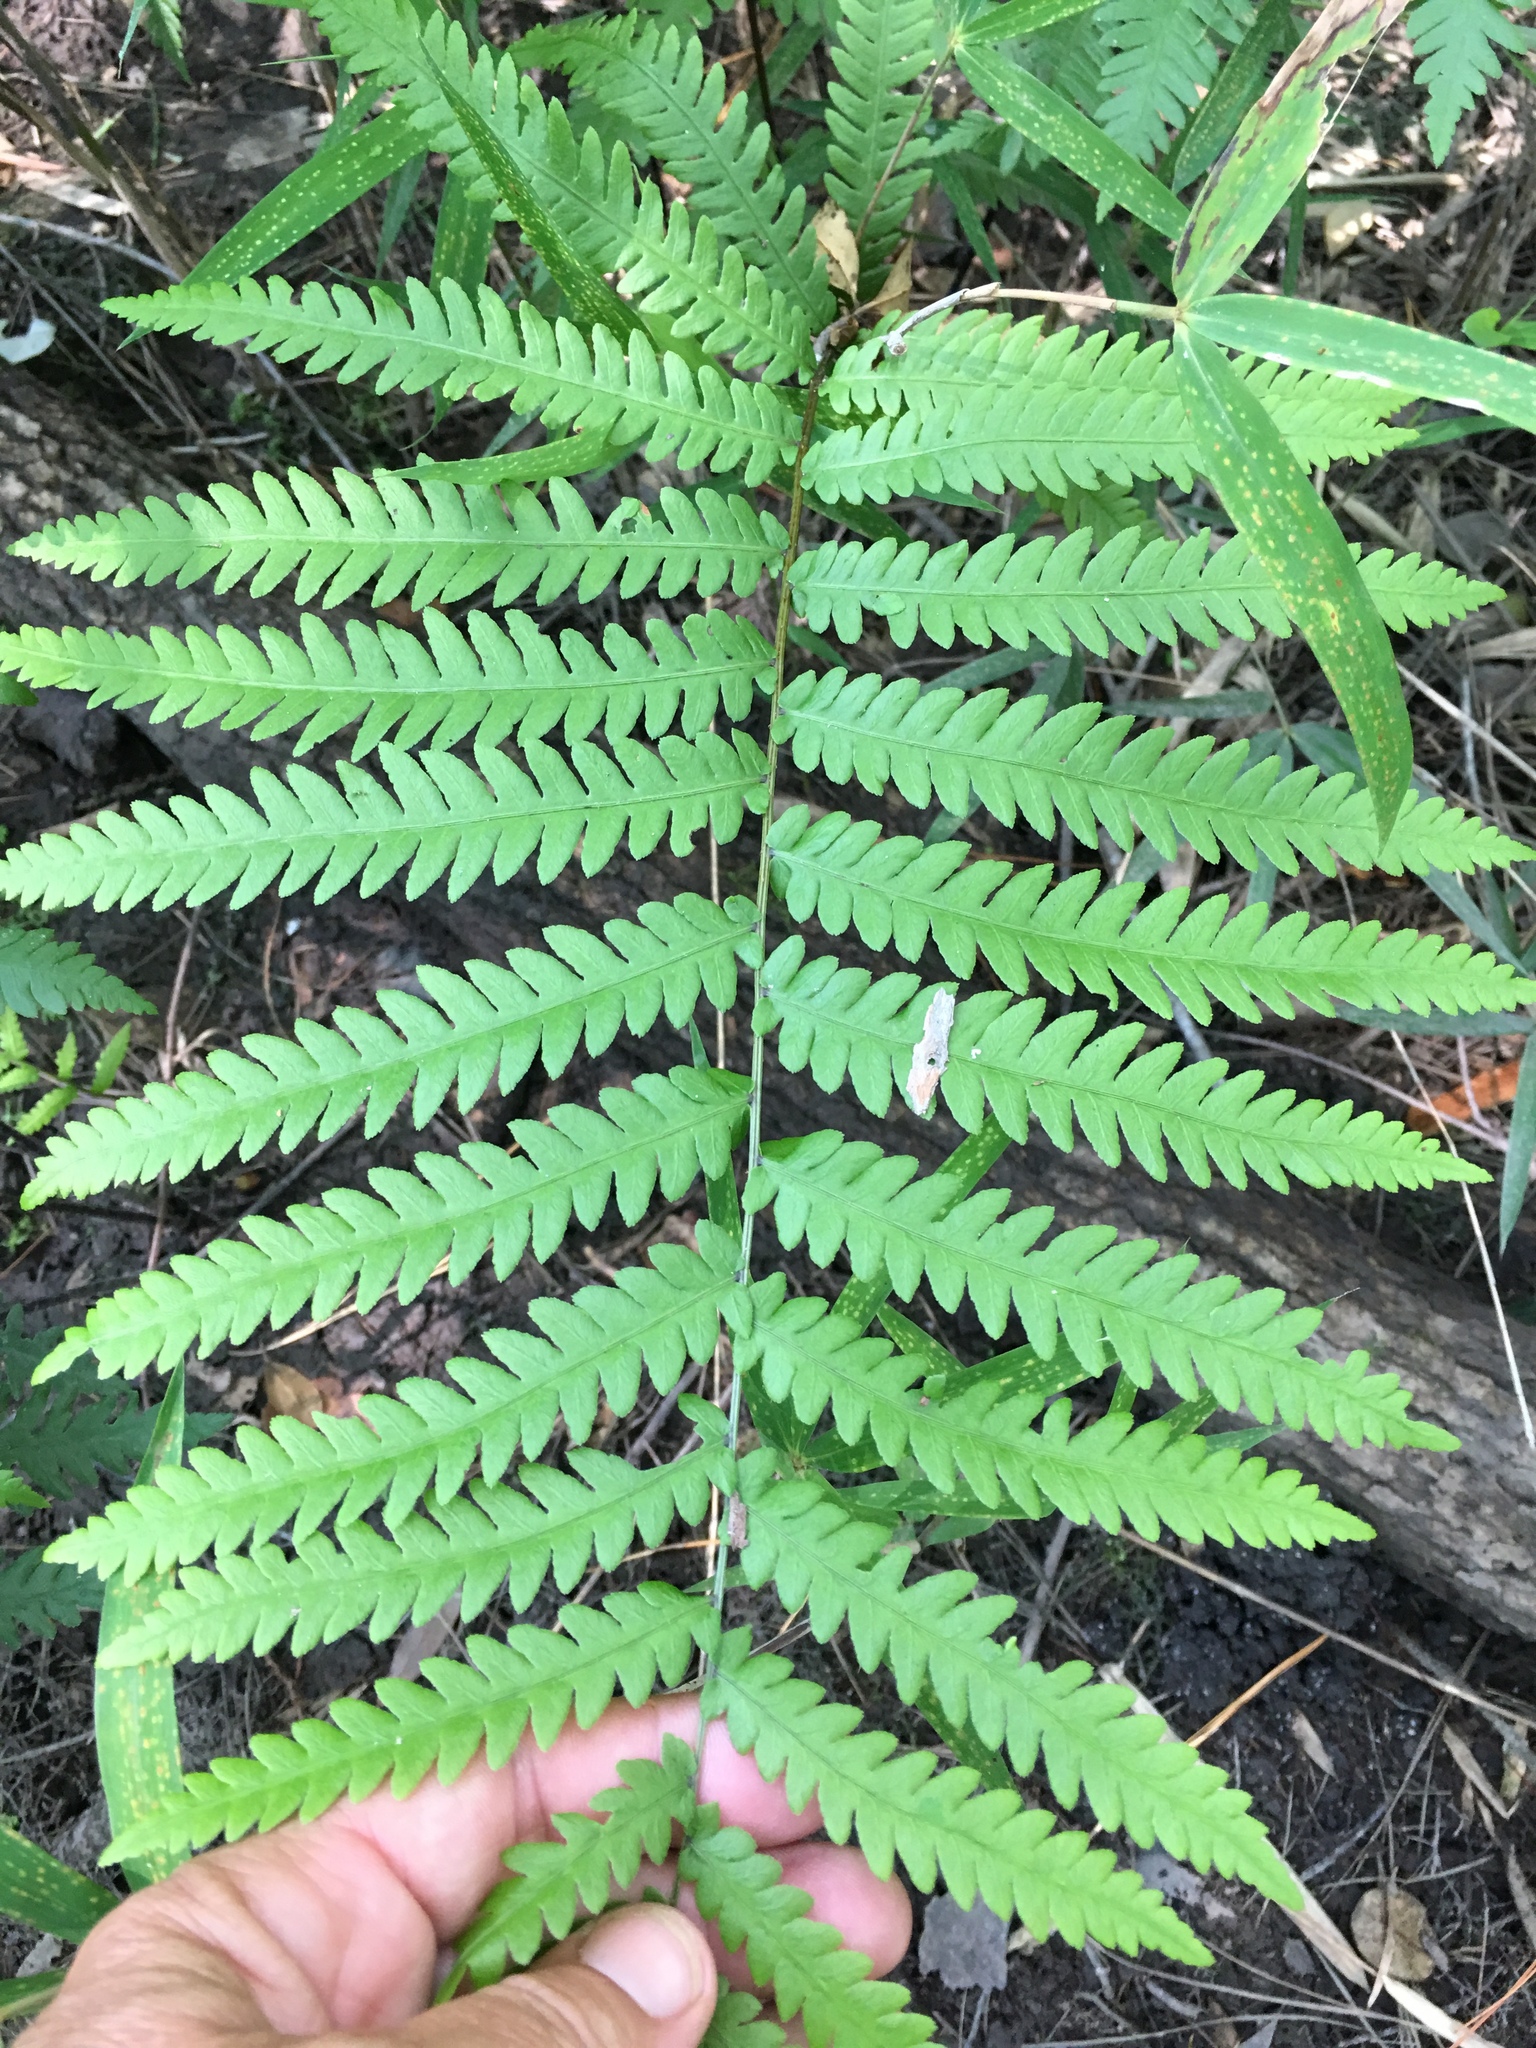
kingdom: Plantae
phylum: Tracheophyta
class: Polypodiopsida
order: Polypodiales
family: Blechnaceae
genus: Anchistea
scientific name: Anchistea virginica
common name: Virginia chain fern
